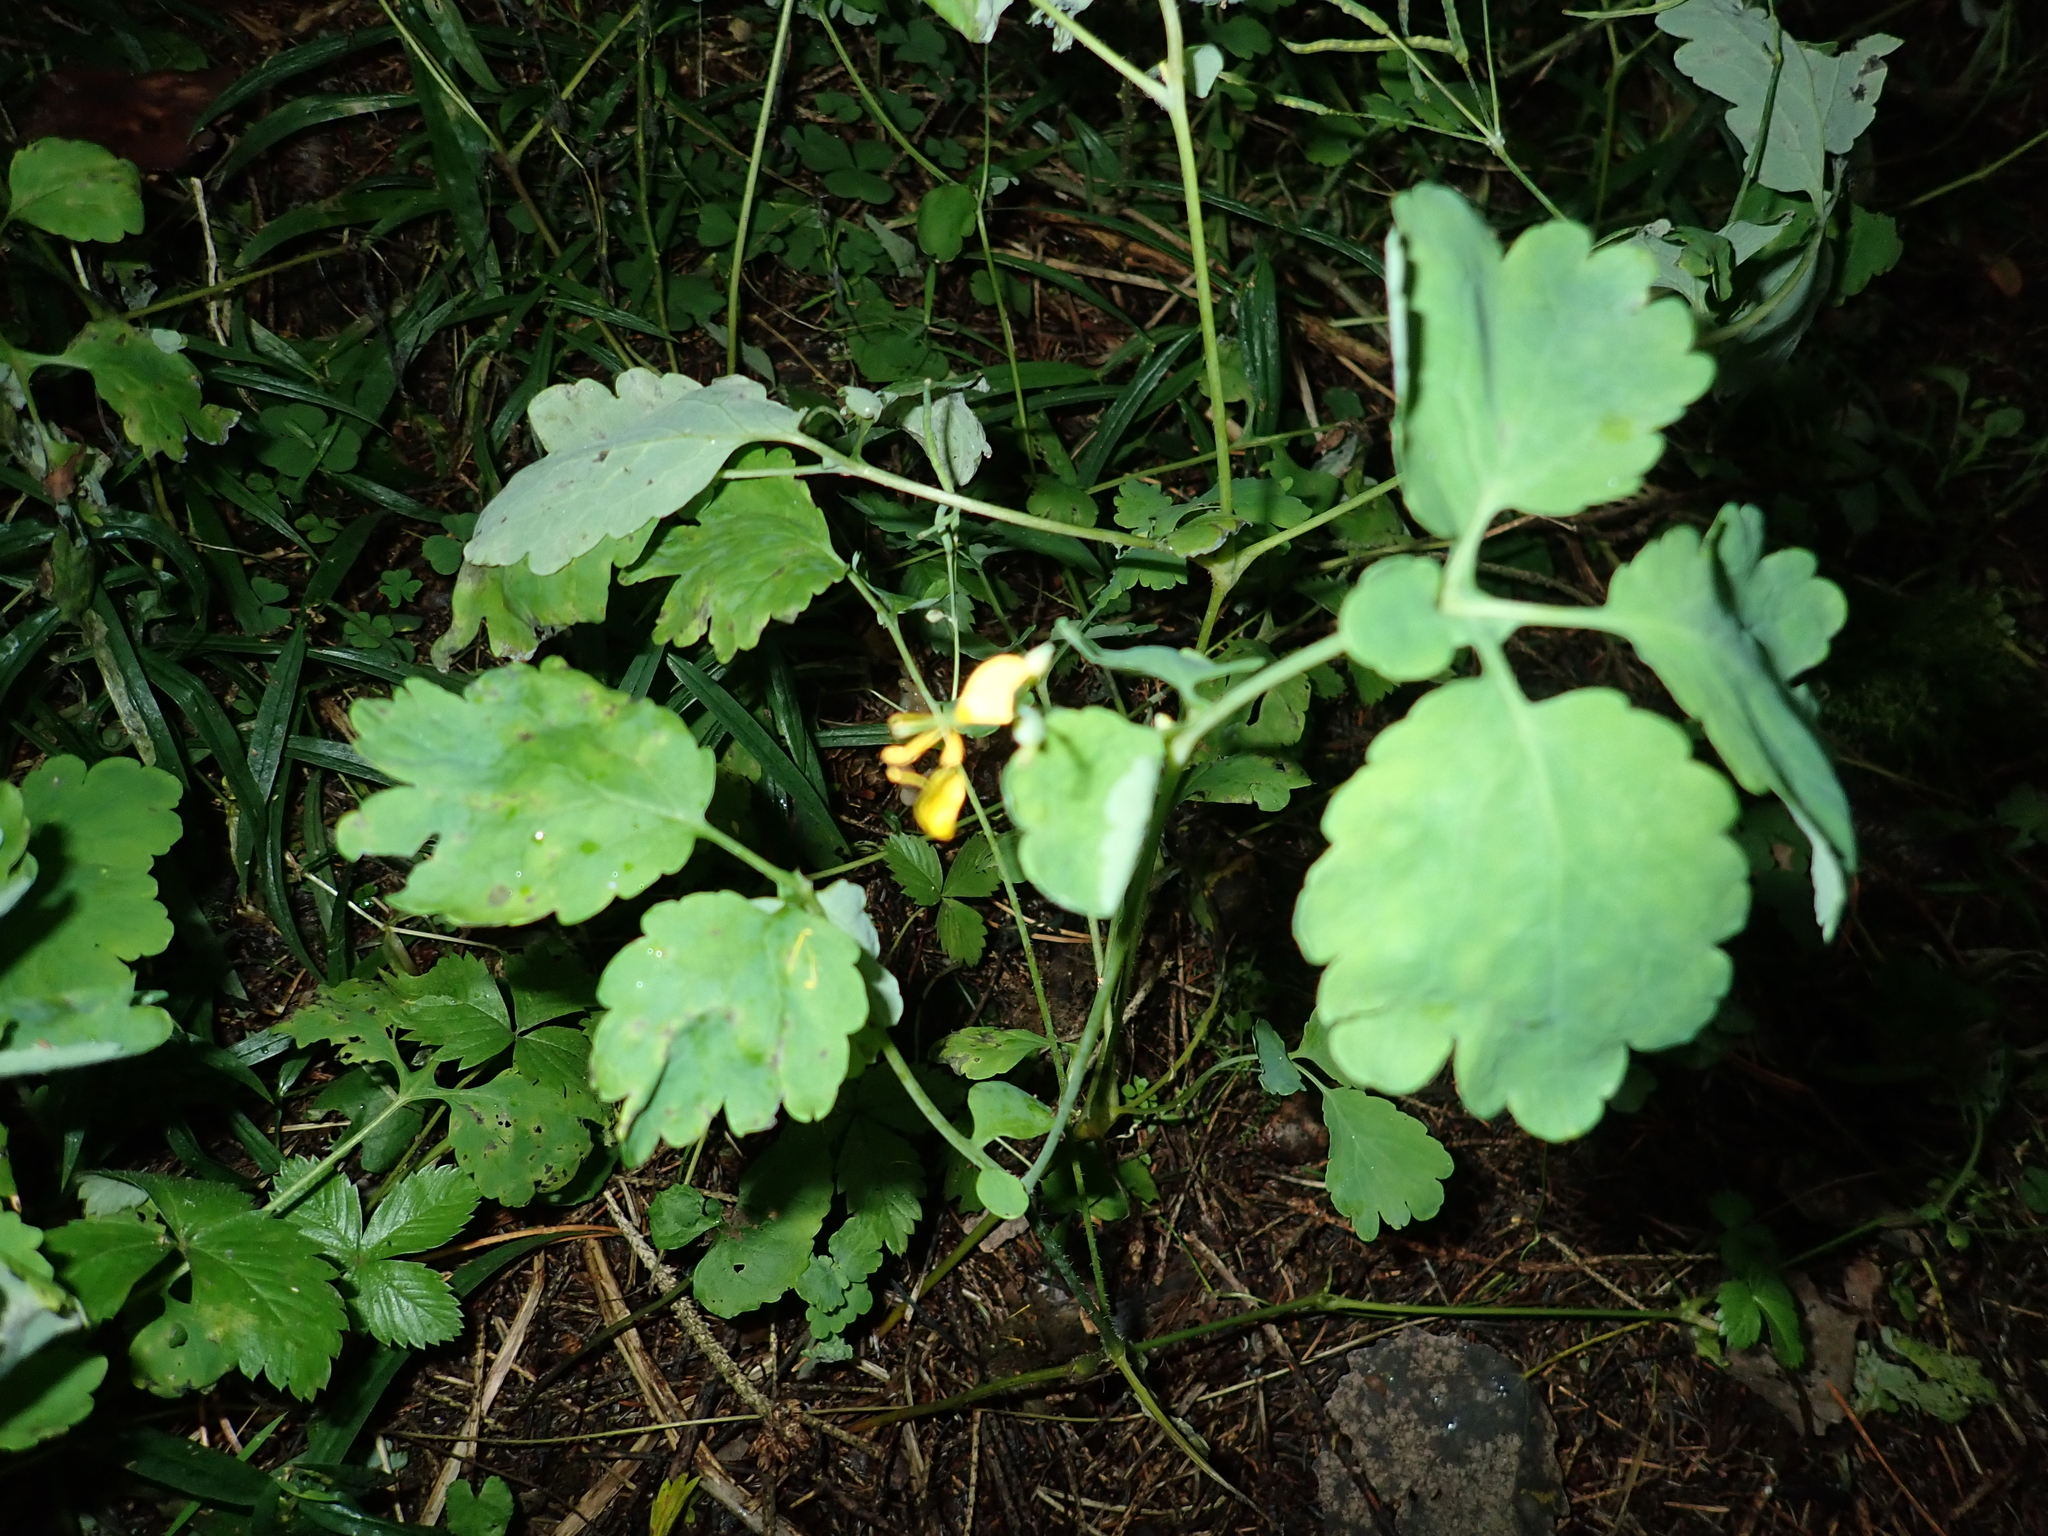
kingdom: Plantae
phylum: Tracheophyta
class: Magnoliopsida
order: Ranunculales
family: Papaveraceae
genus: Chelidonium
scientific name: Chelidonium majus
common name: Greater celandine
